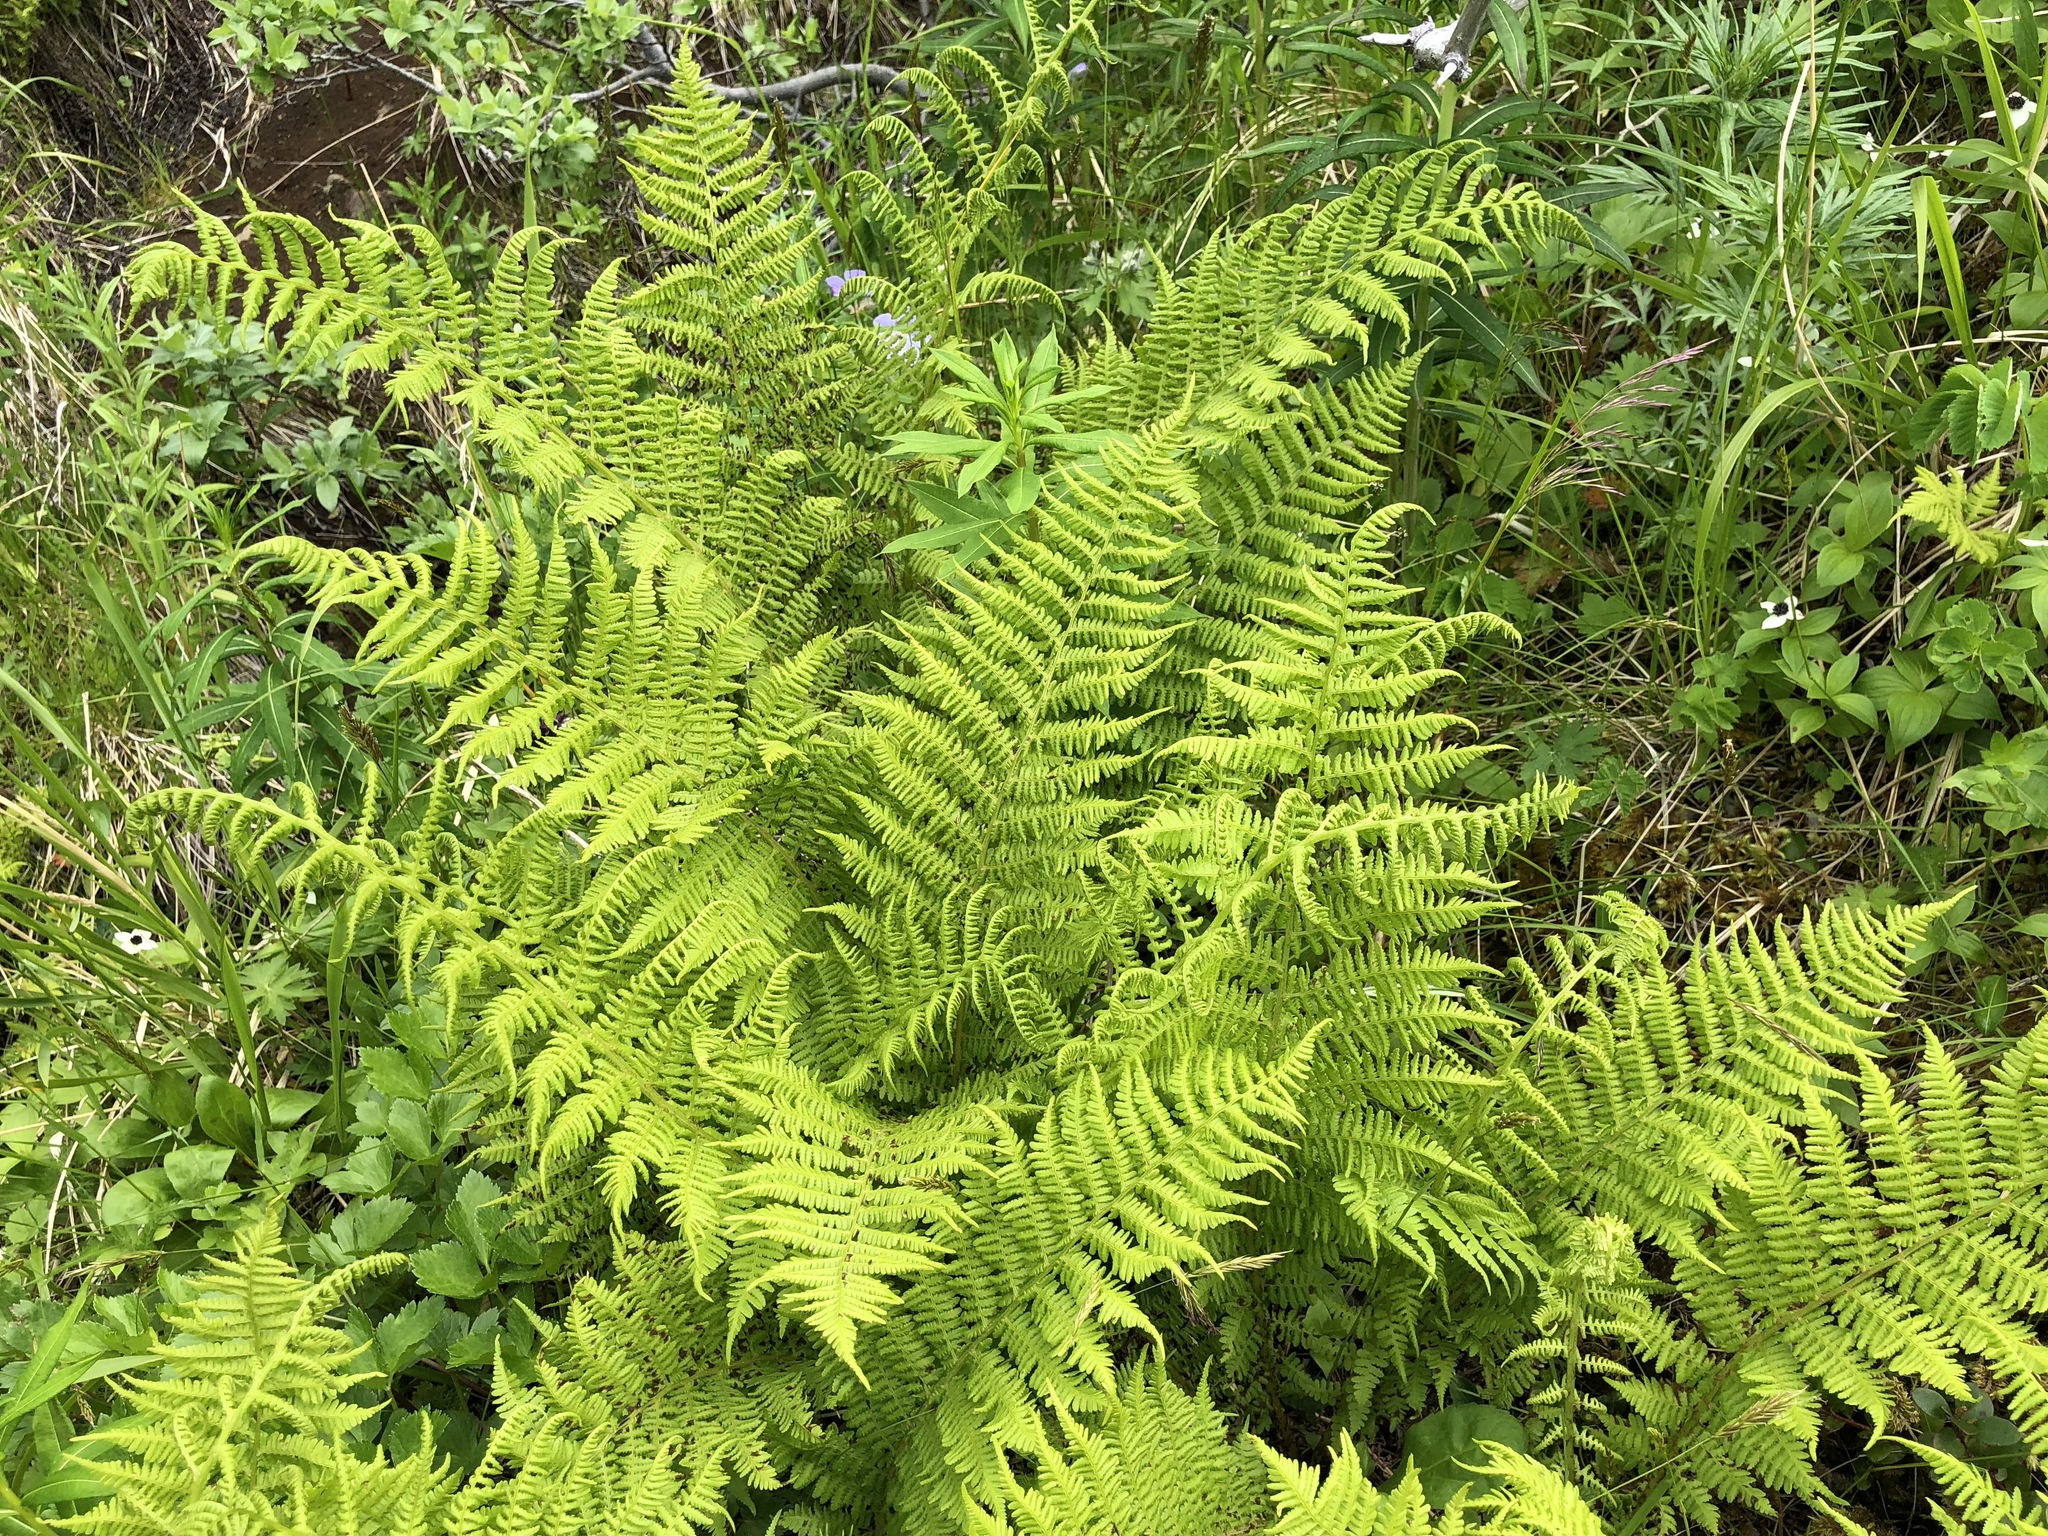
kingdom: Plantae
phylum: Tracheophyta
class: Polypodiopsida
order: Polypodiales
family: Athyriaceae
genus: Athyrium
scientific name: Athyrium filix-femina
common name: Lady fern
